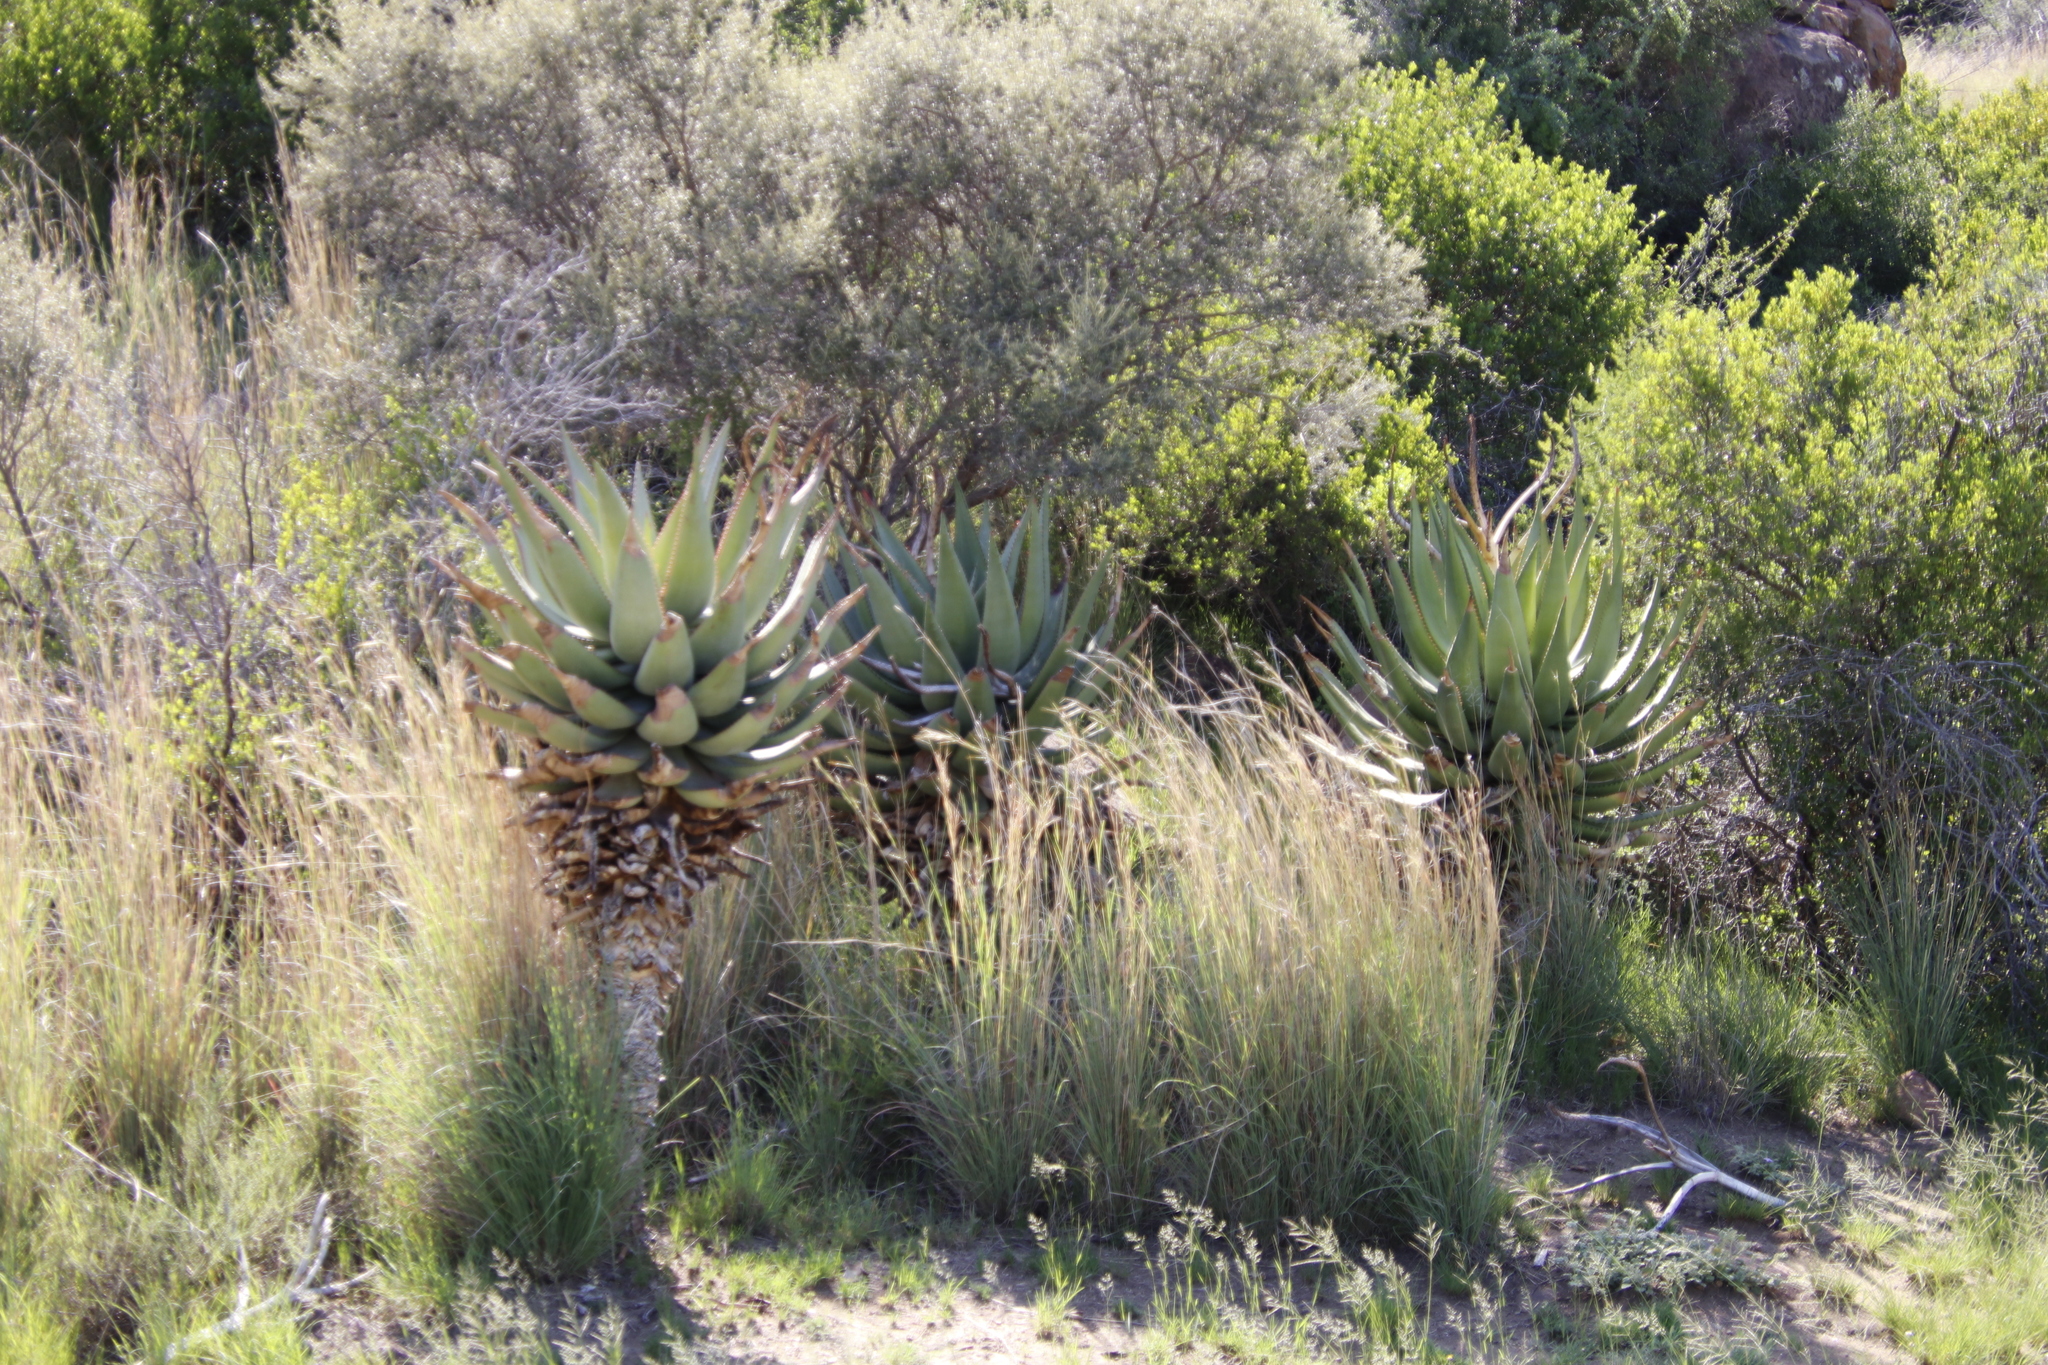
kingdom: Plantae
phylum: Tracheophyta
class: Liliopsida
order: Asparagales
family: Asphodelaceae
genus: Aloe
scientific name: Aloe ferox
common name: Bitter aloe
